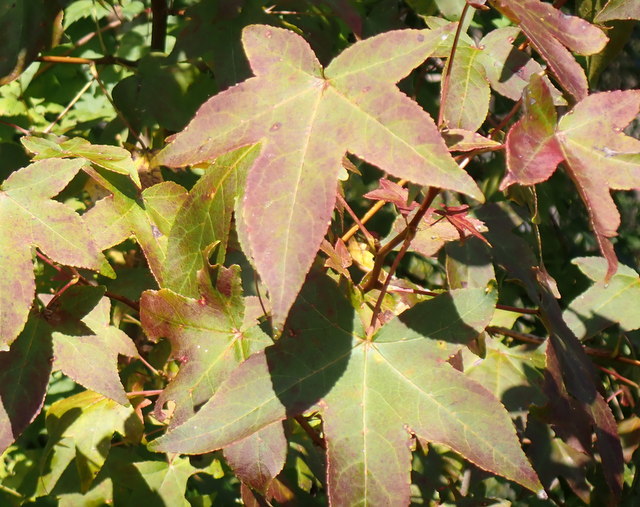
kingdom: Plantae
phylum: Tracheophyta
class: Magnoliopsida
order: Saxifragales
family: Altingiaceae
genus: Liquidambar
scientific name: Liquidambar styraciflua
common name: Sweet gum
